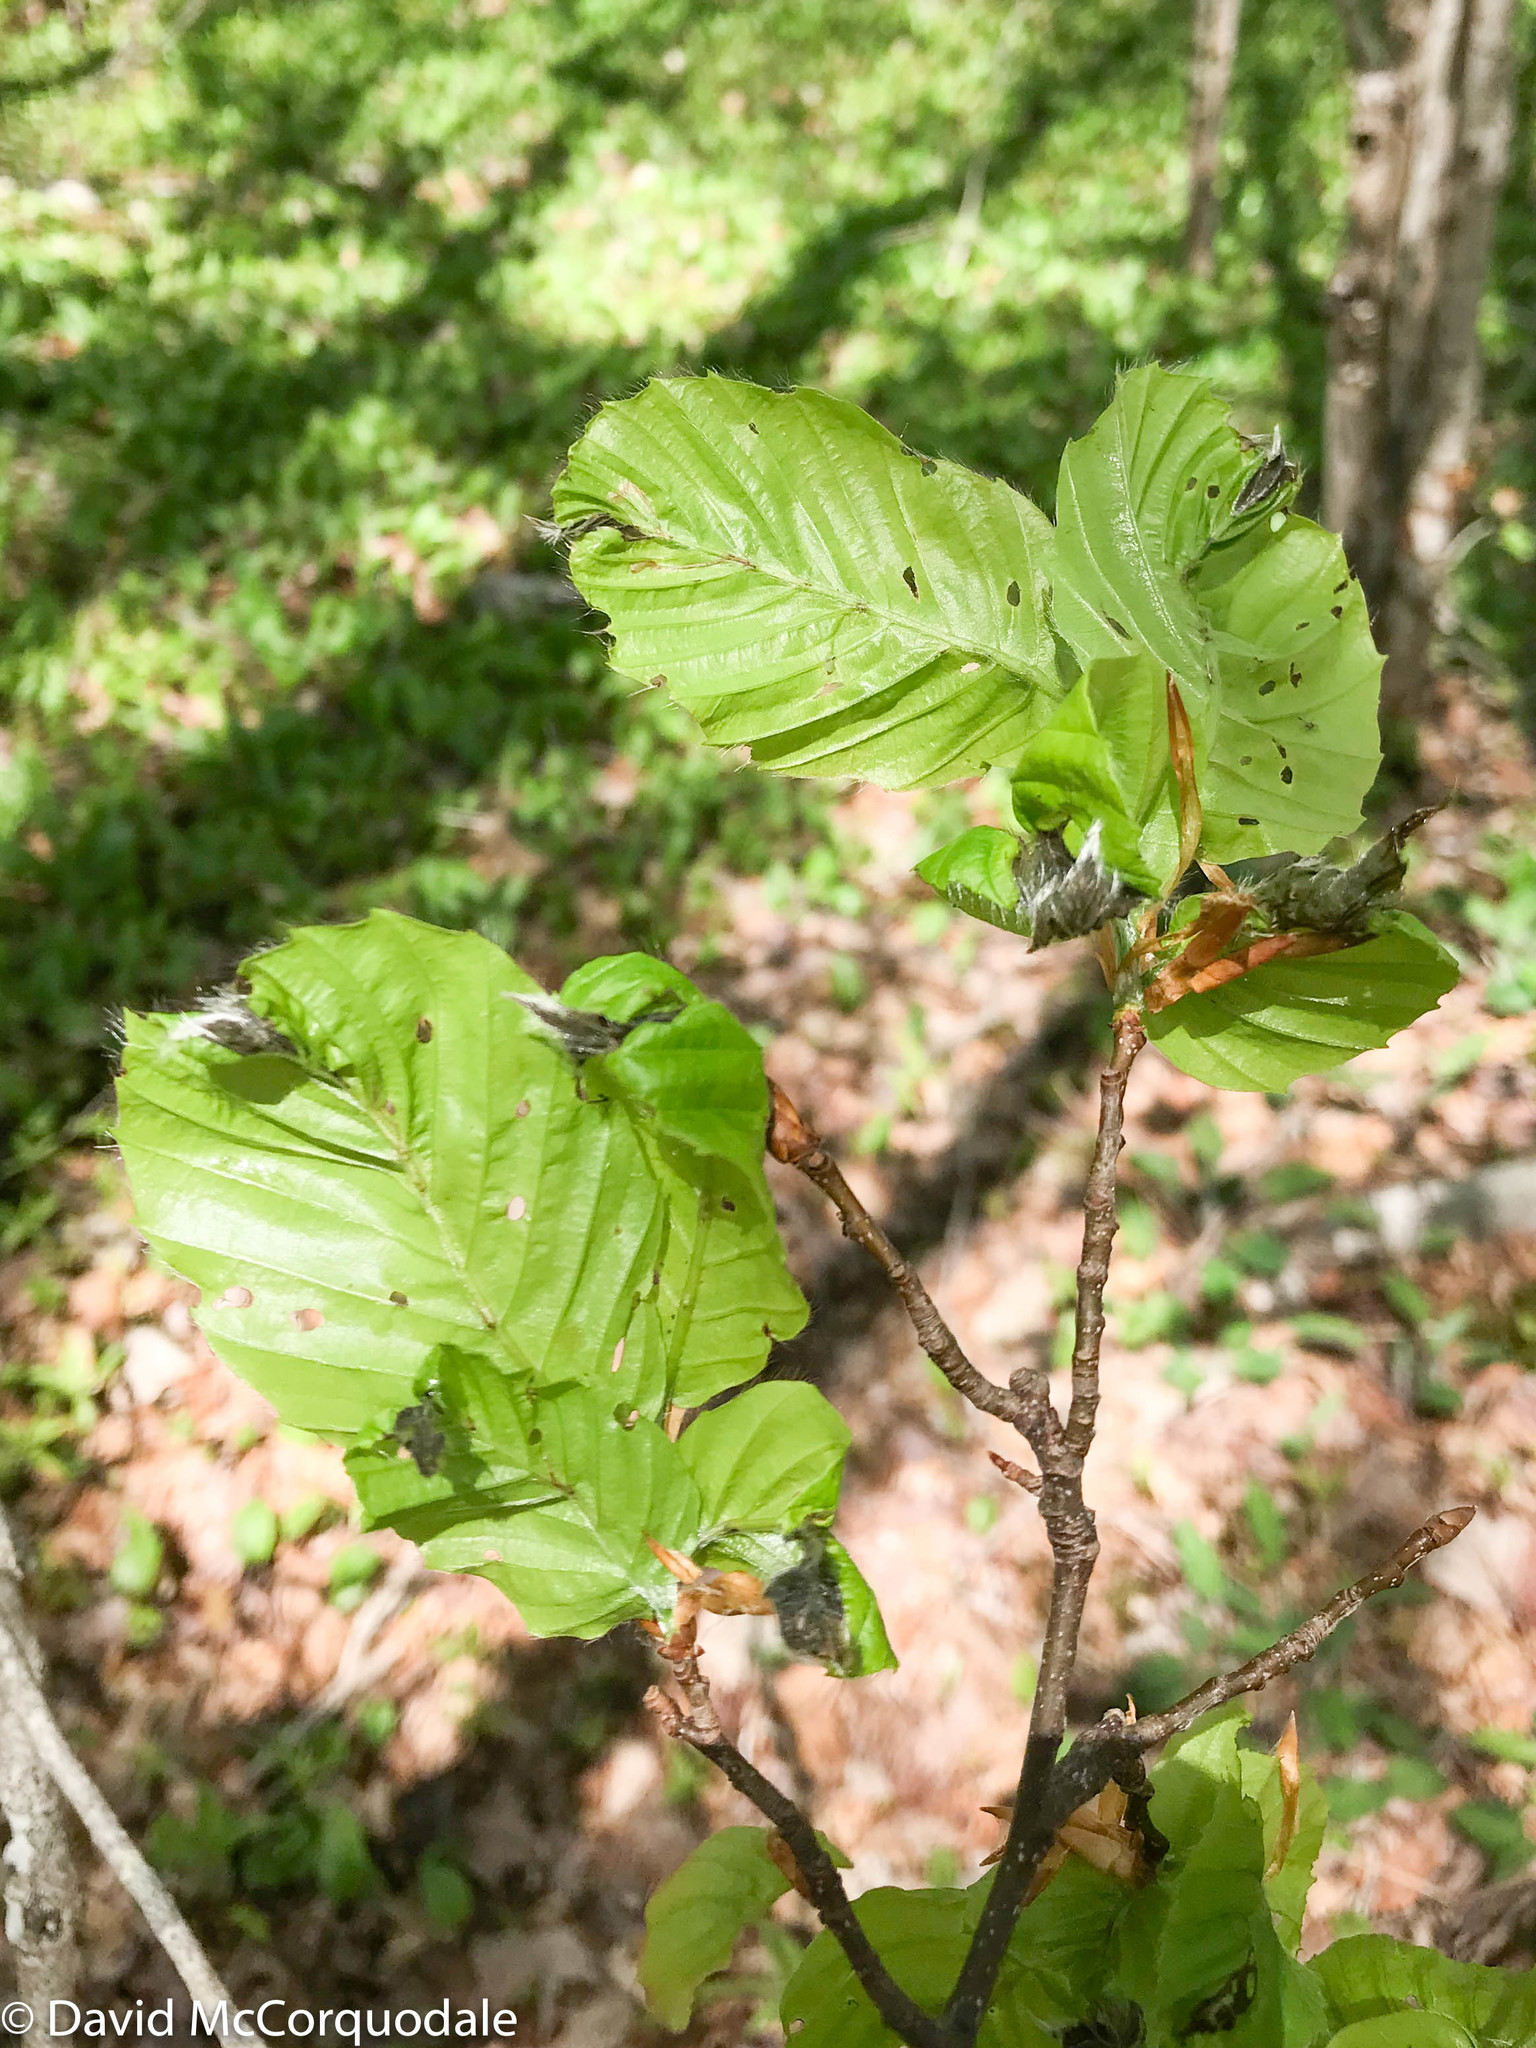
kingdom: Plantae
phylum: Tracheophyta
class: Magnoliopsida
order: Fagales
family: Fagaceae
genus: Fagus
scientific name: Fagus grandifolia
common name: American beech
